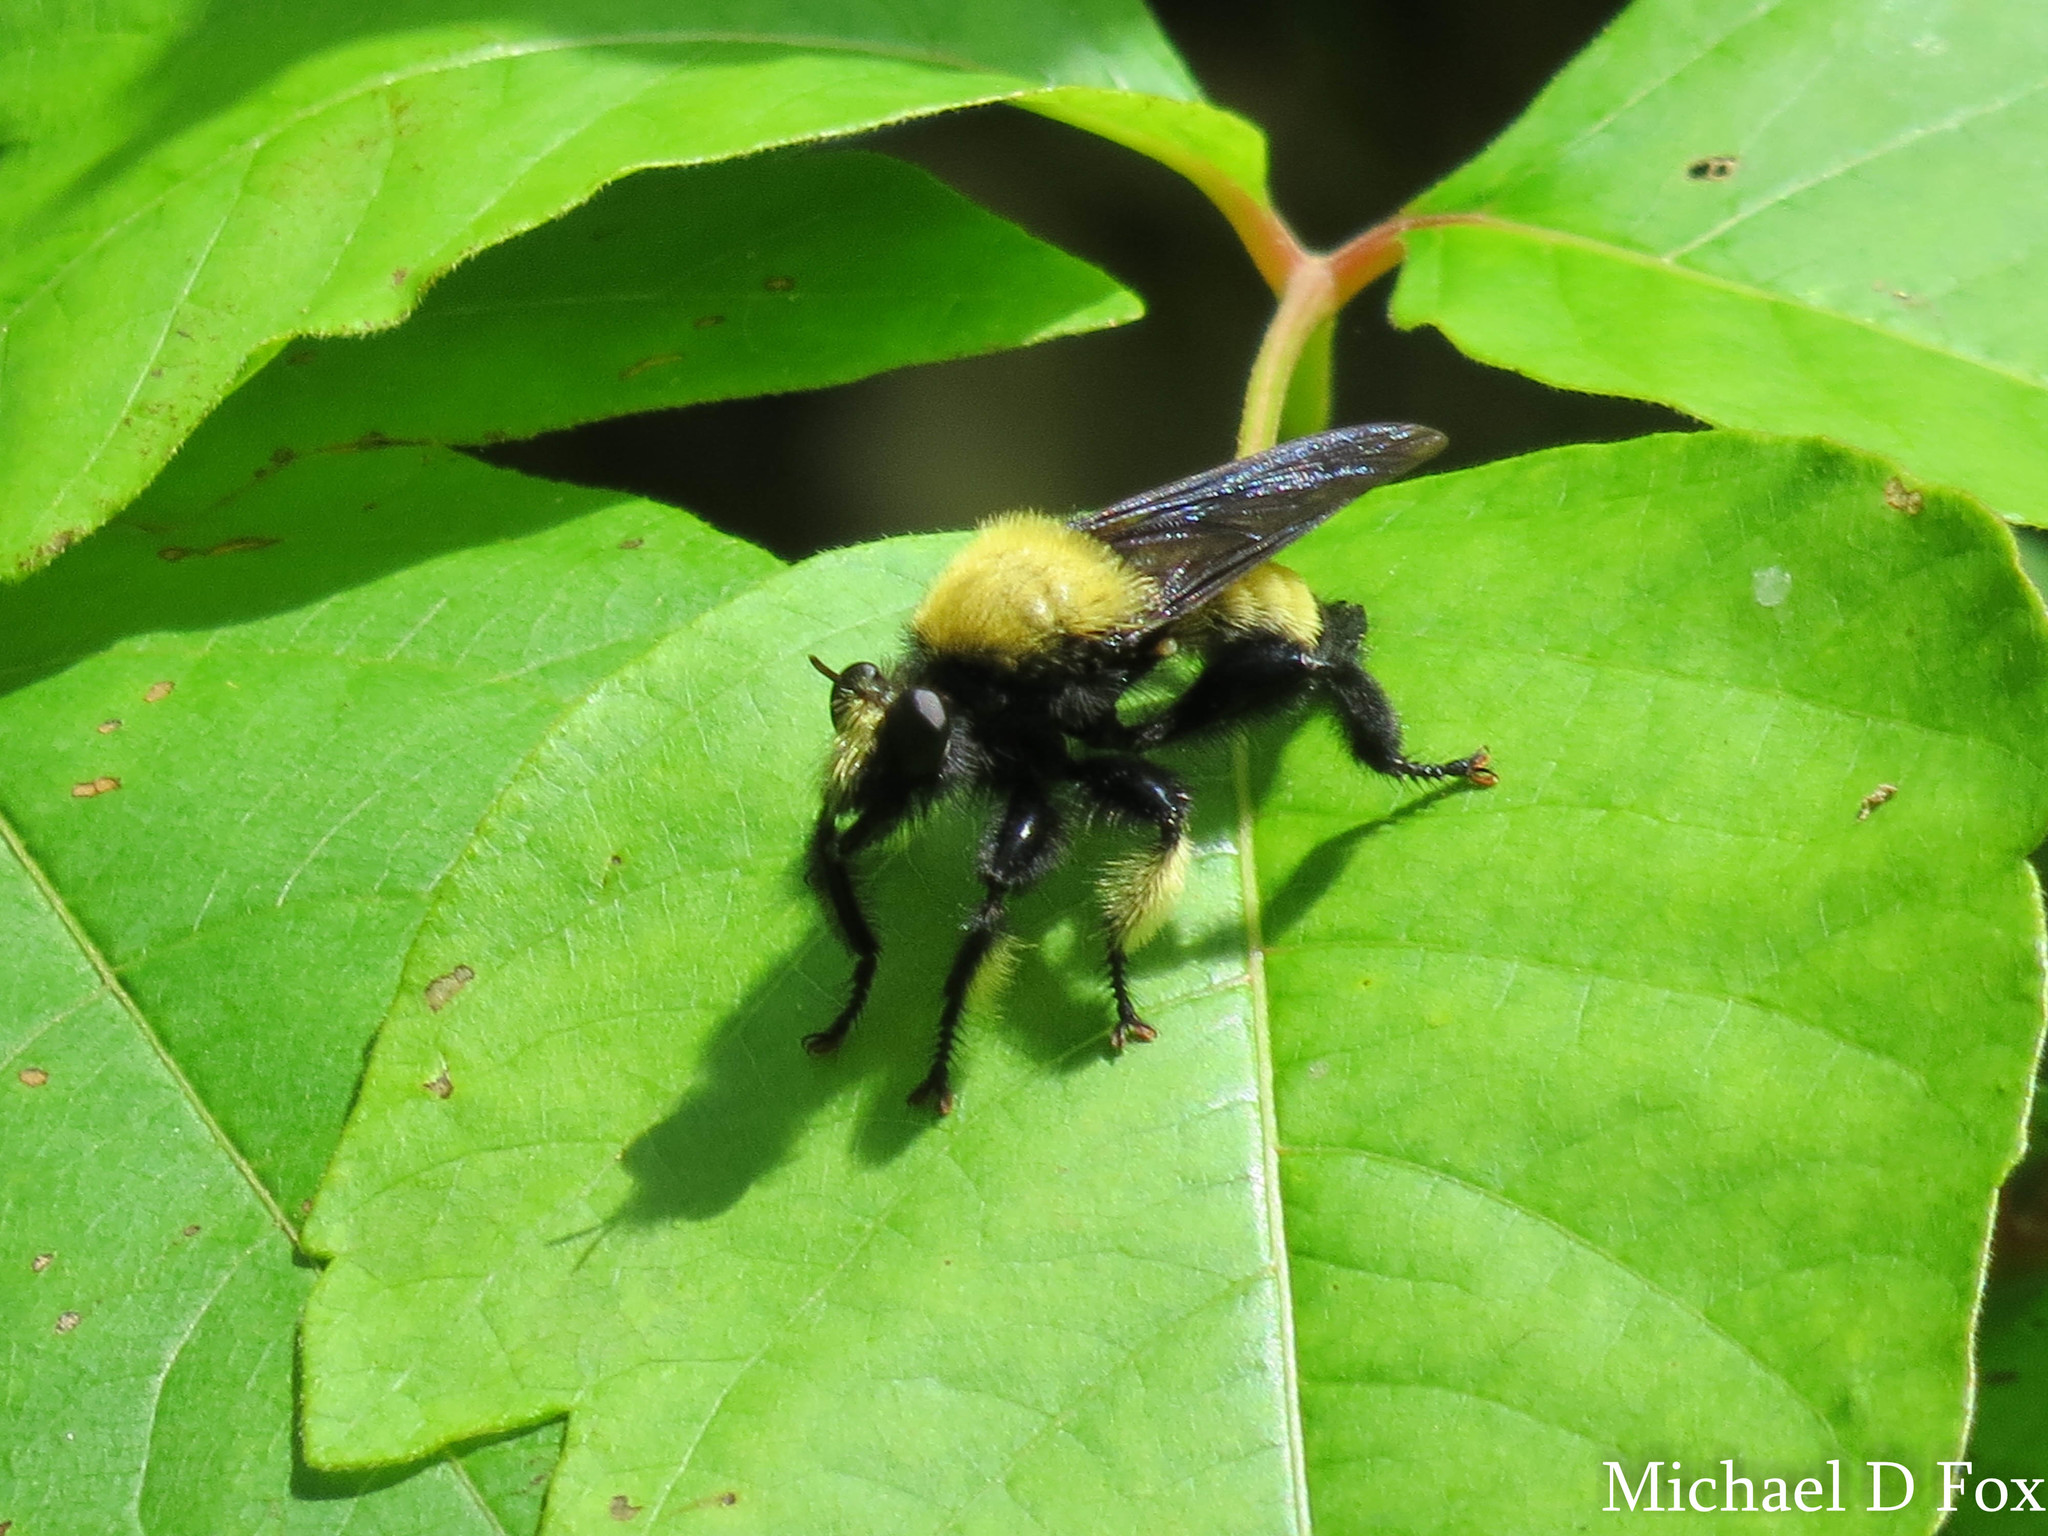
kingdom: Animalia
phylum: Arthropoda
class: Insecta
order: Diptera
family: Asilidae
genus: Laphria
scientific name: Laphria macquarti
